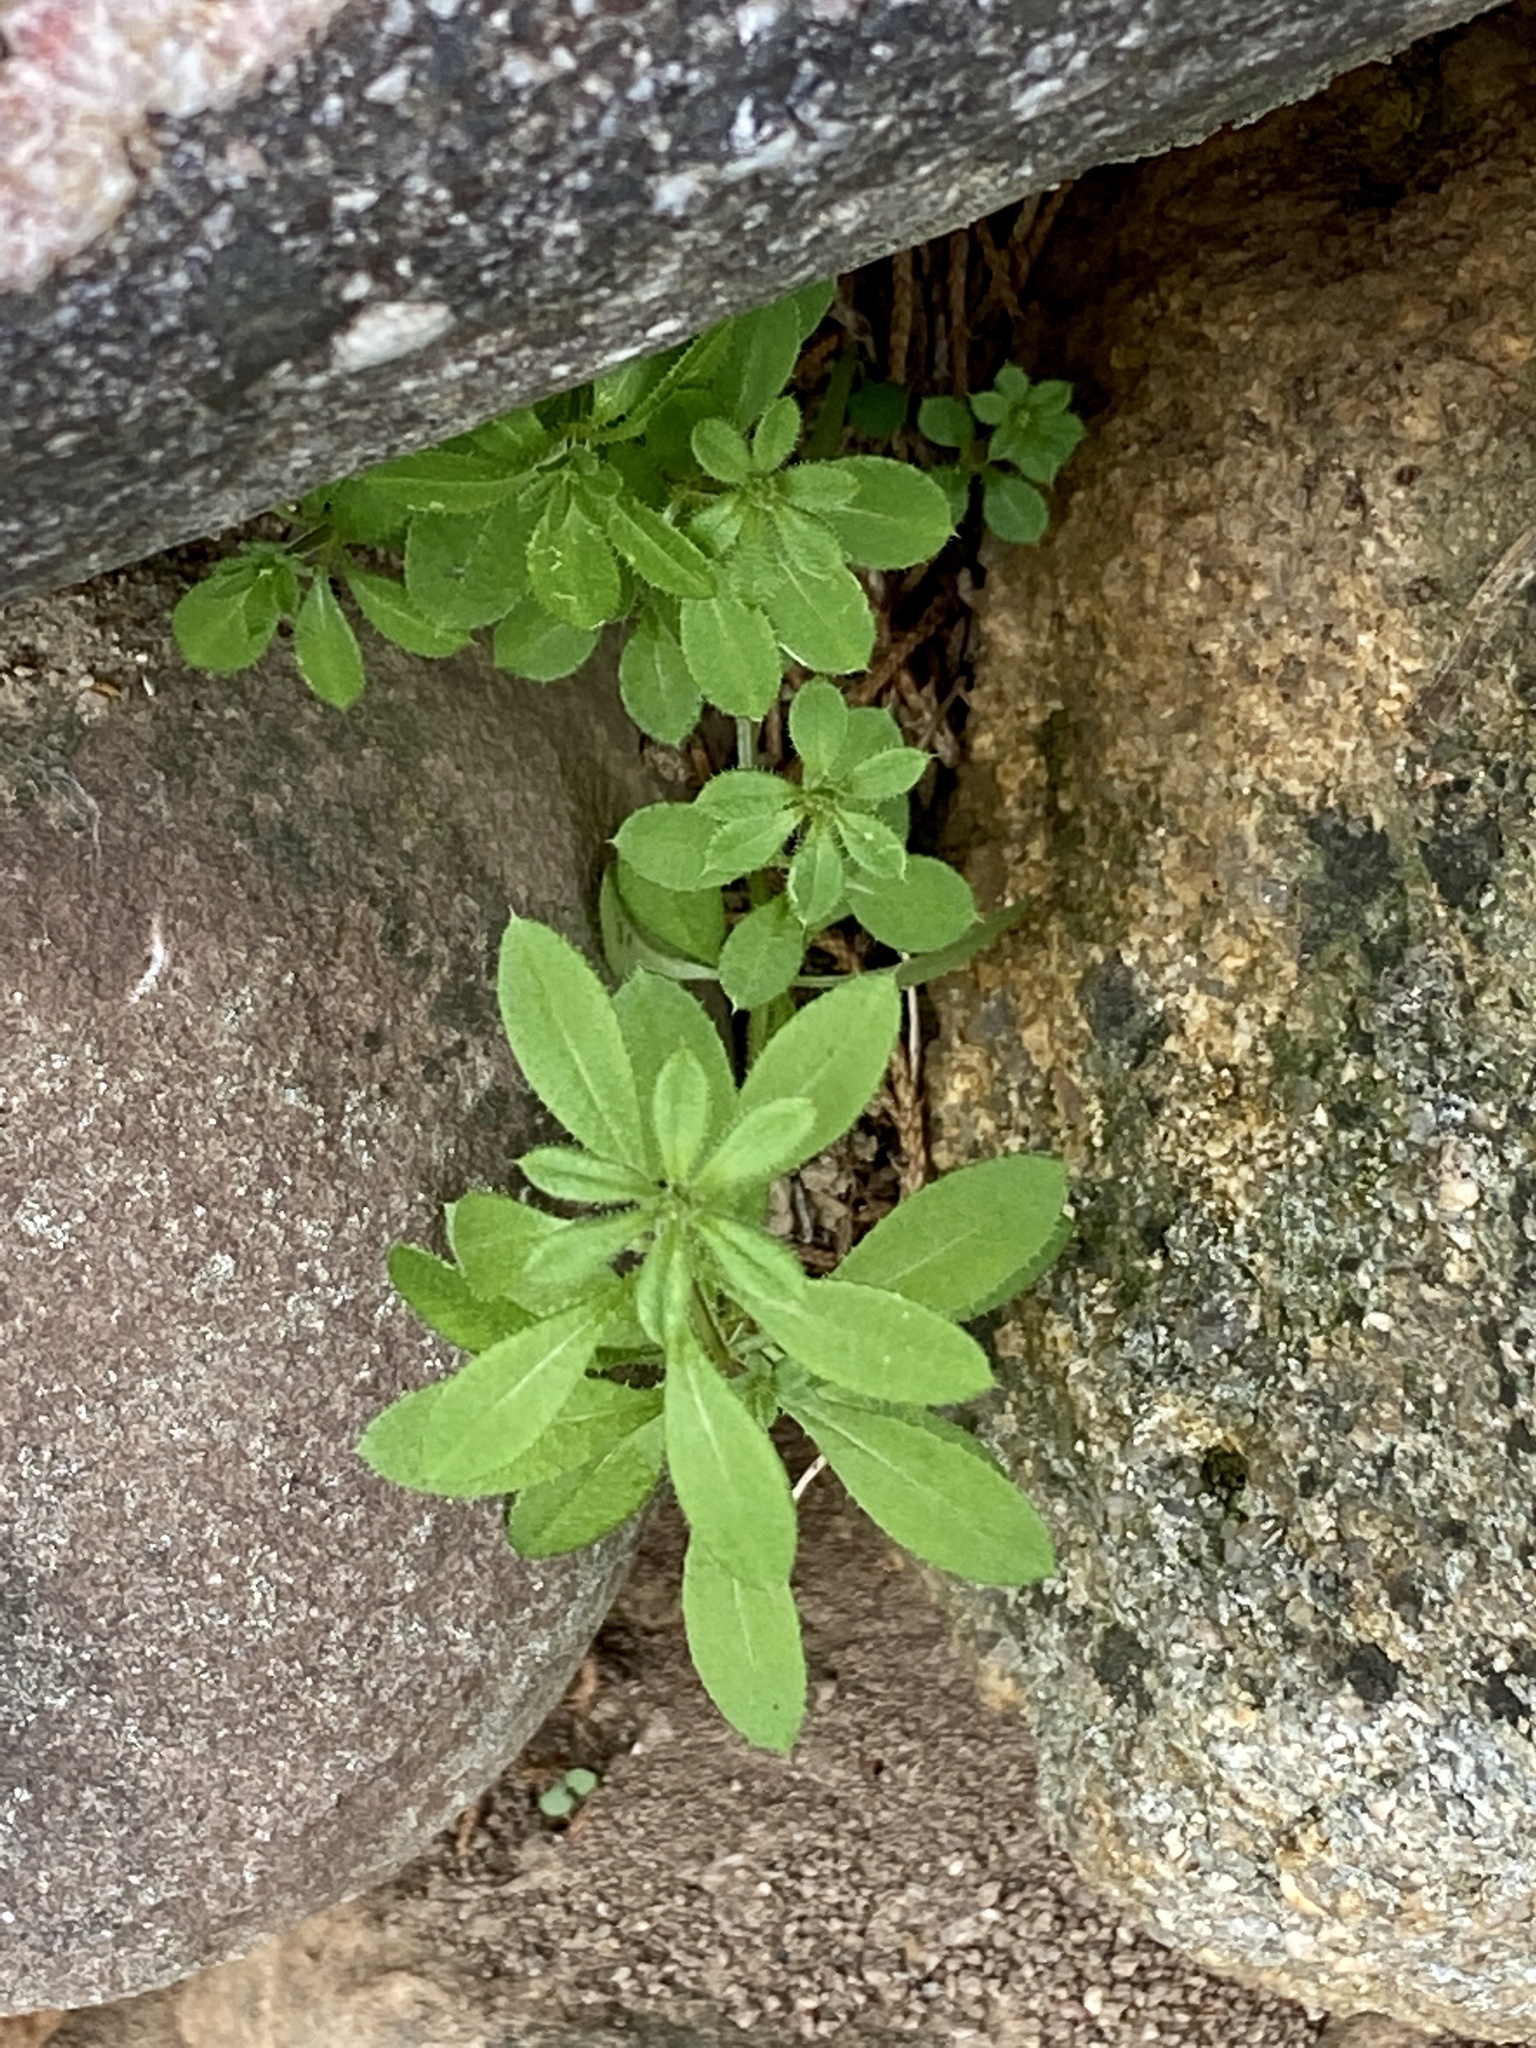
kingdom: Plantae
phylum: Tracheophyta
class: Magnoliopsida
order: Gentianales
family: Rubiaceae
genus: Galium
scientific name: Galium aparine
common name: Cleavers
